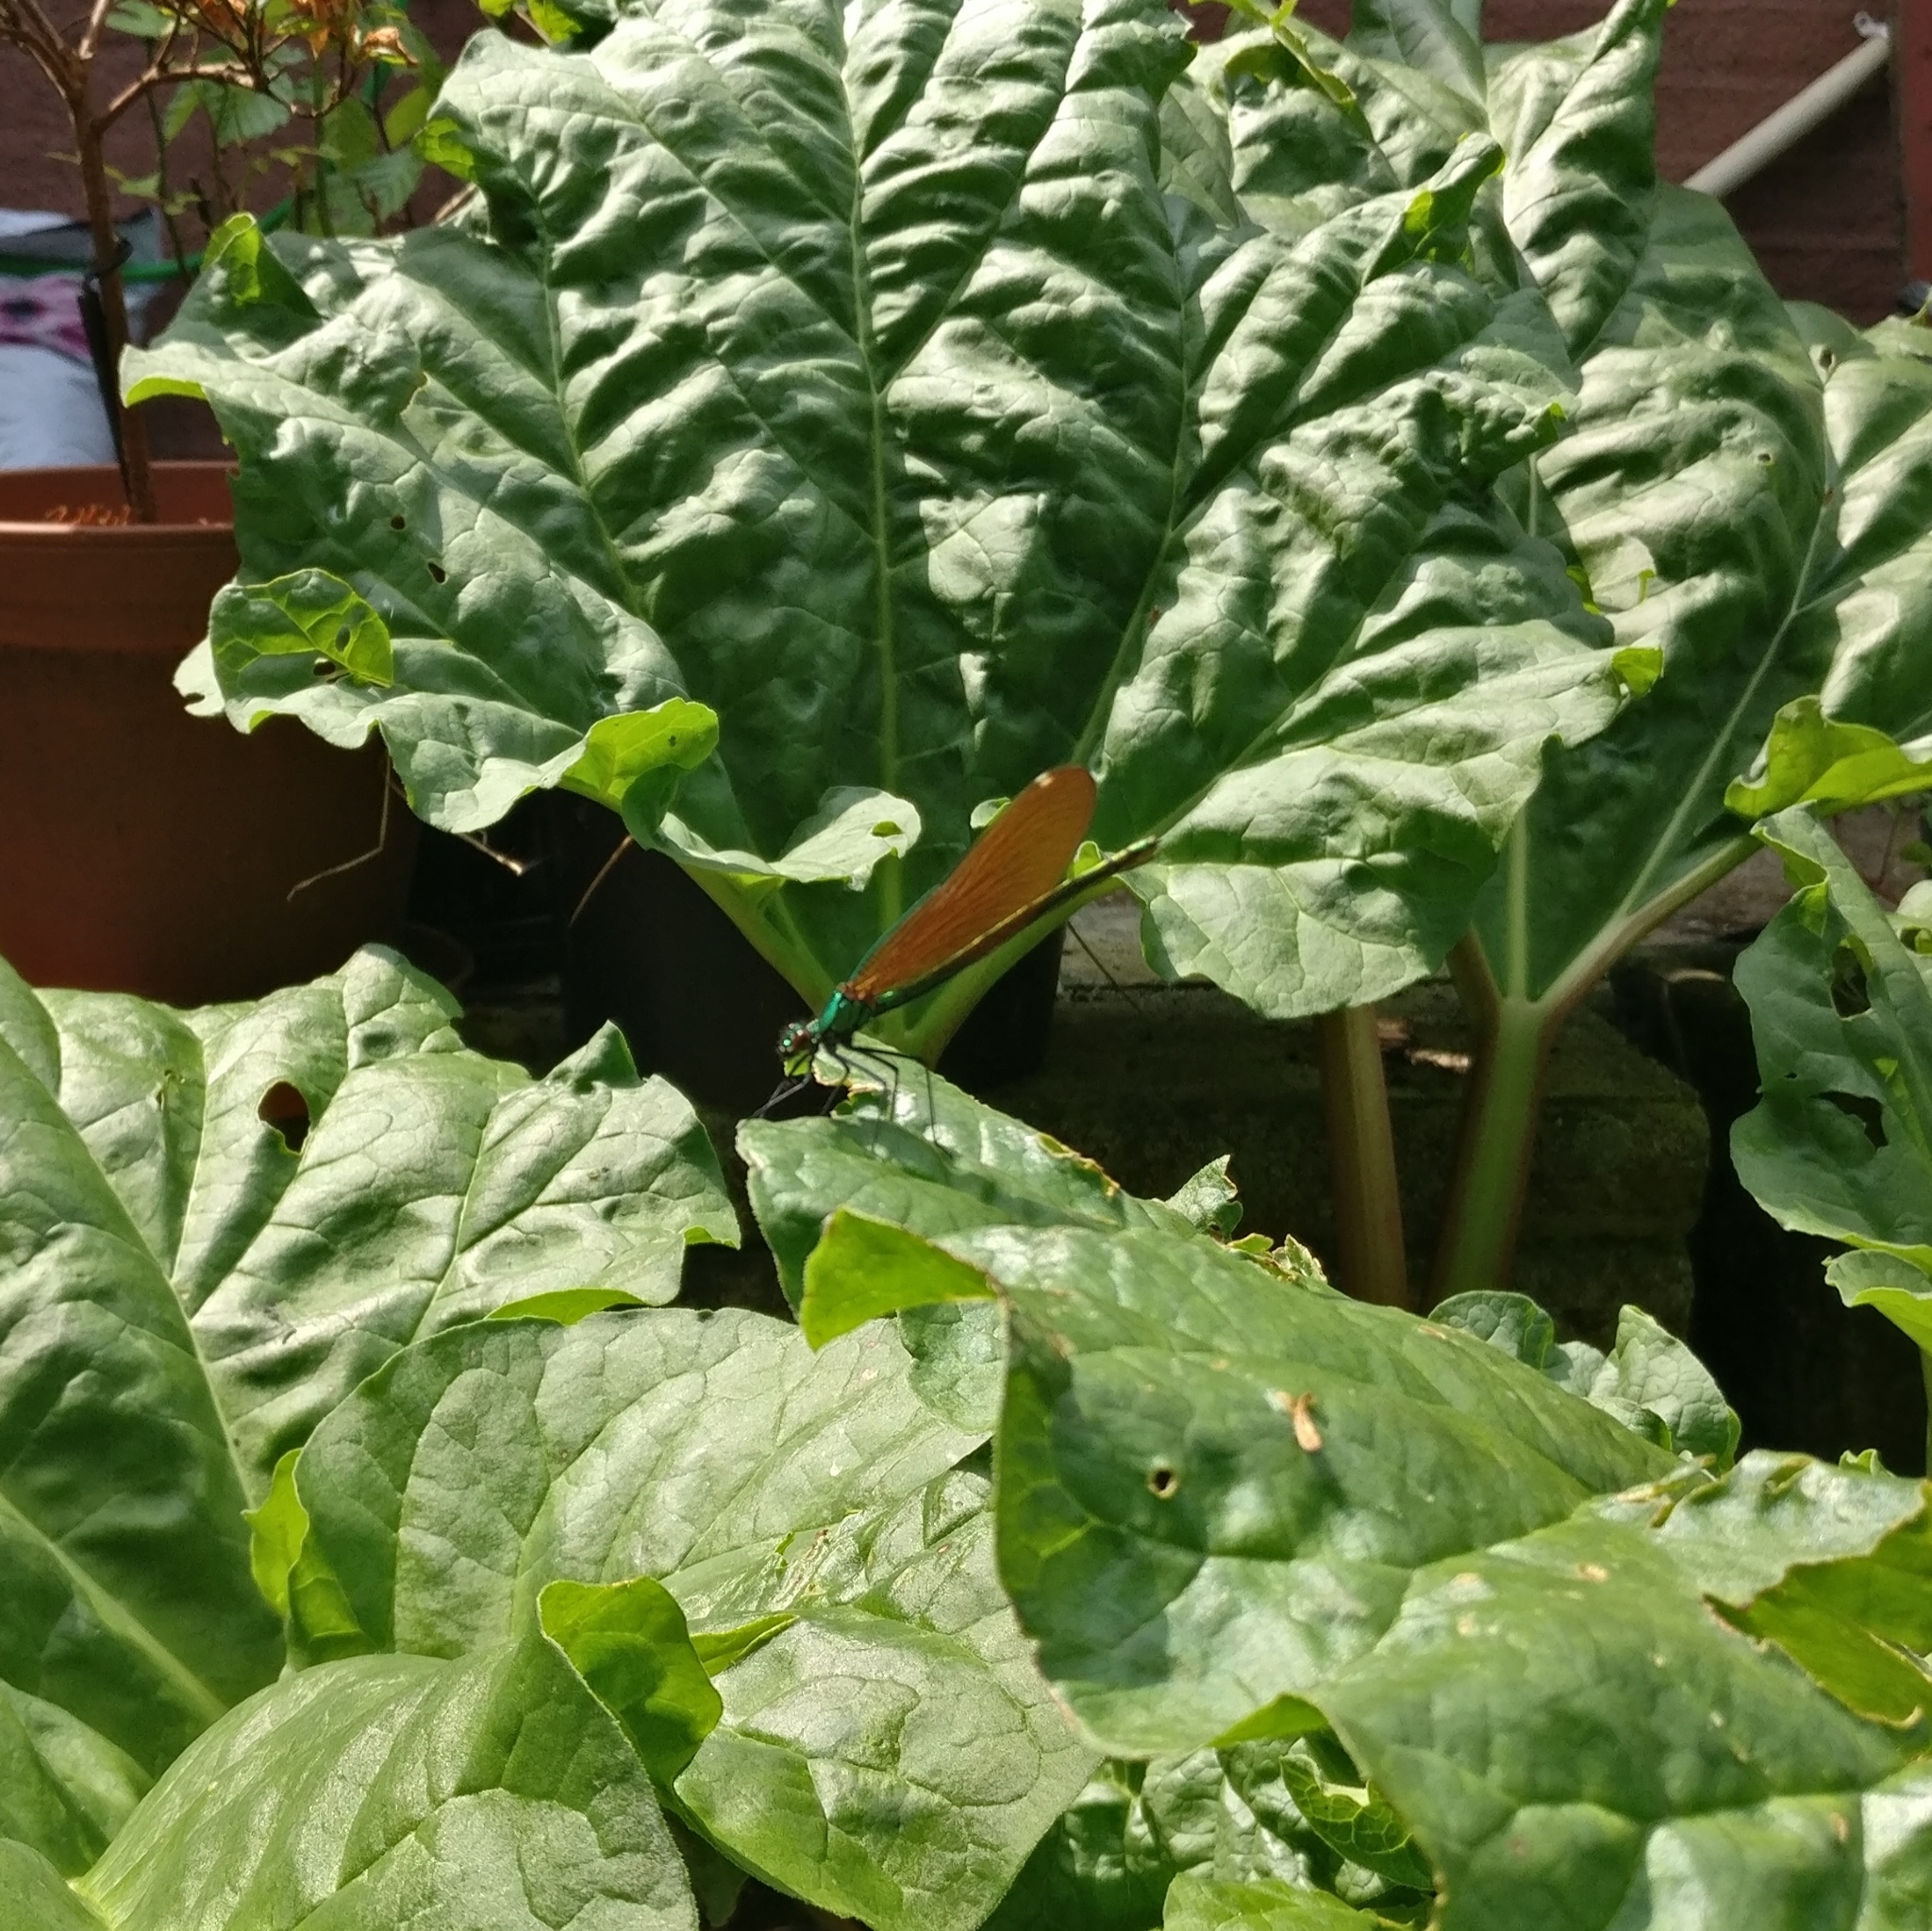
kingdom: Animalia
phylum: Arthropoda
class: Insecta
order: Odonata
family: Calopterygidae
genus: Calopteryx
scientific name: Calopteryx virgo
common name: Beautiful demoiselle
